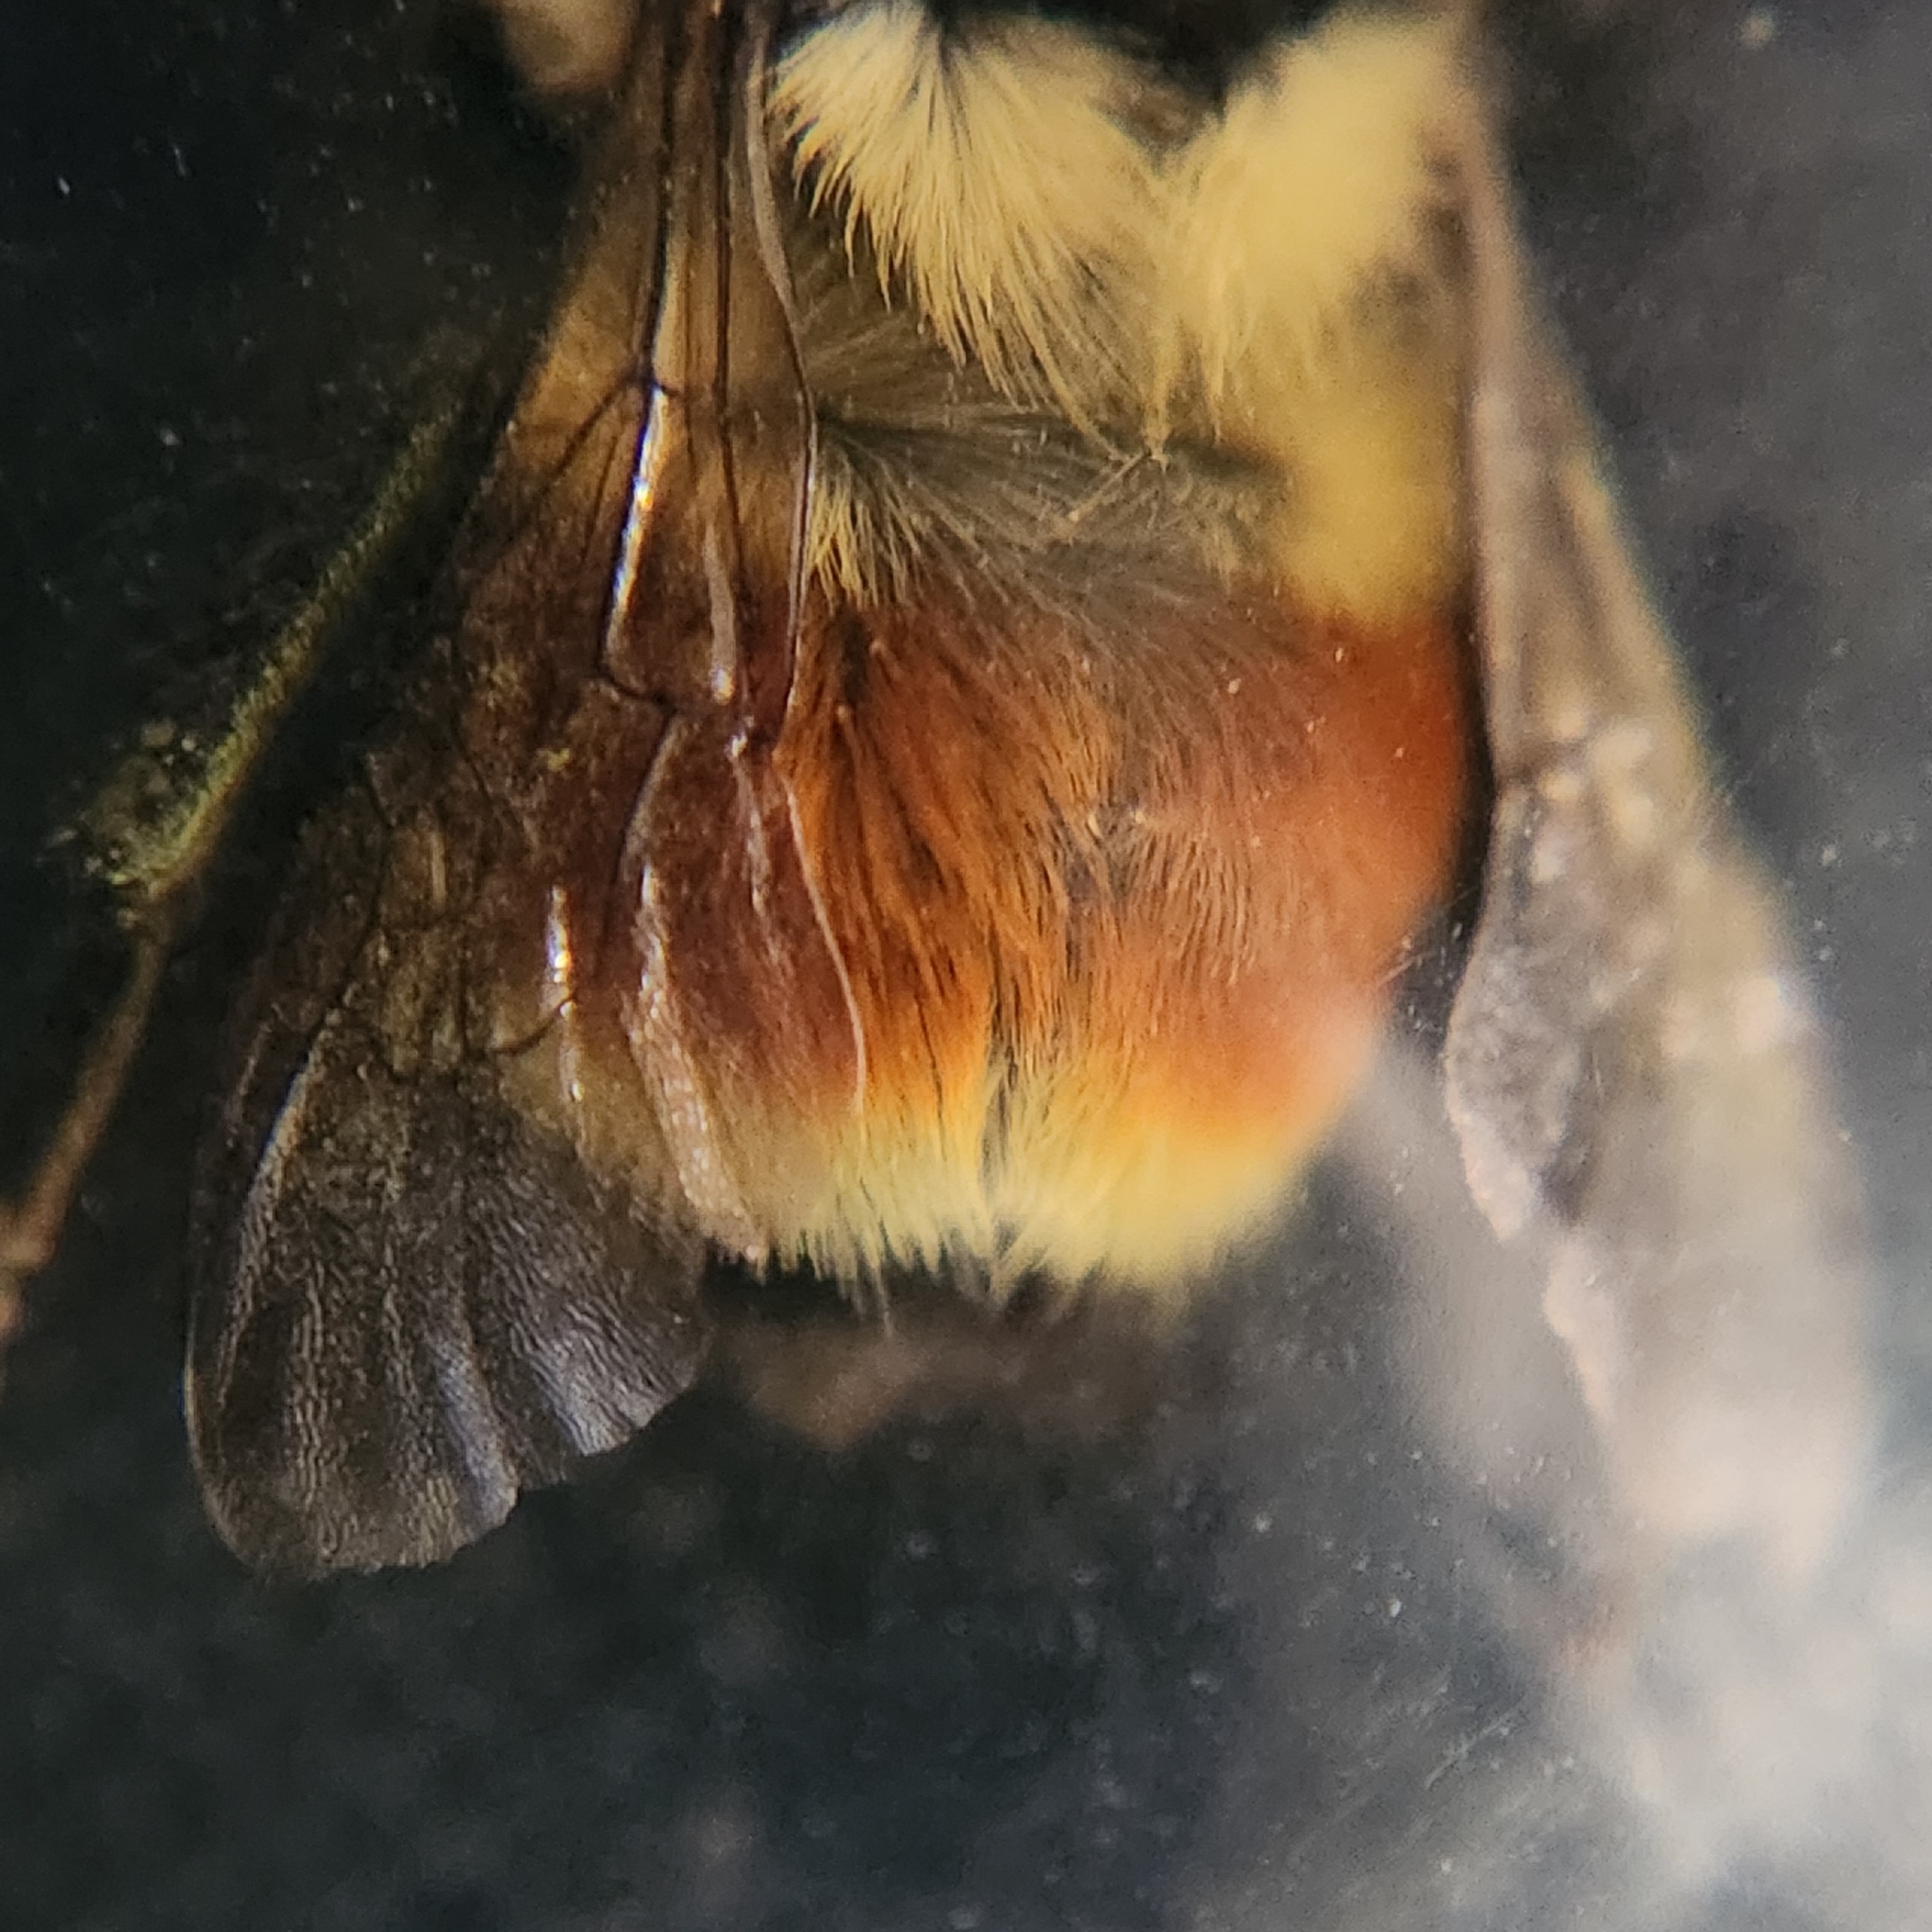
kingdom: Animalia
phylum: Arthropoda
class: Insecta
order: Hymenoptera
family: Apidae
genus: Bombus
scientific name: Bombus huntii
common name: Hunt bumble bee
